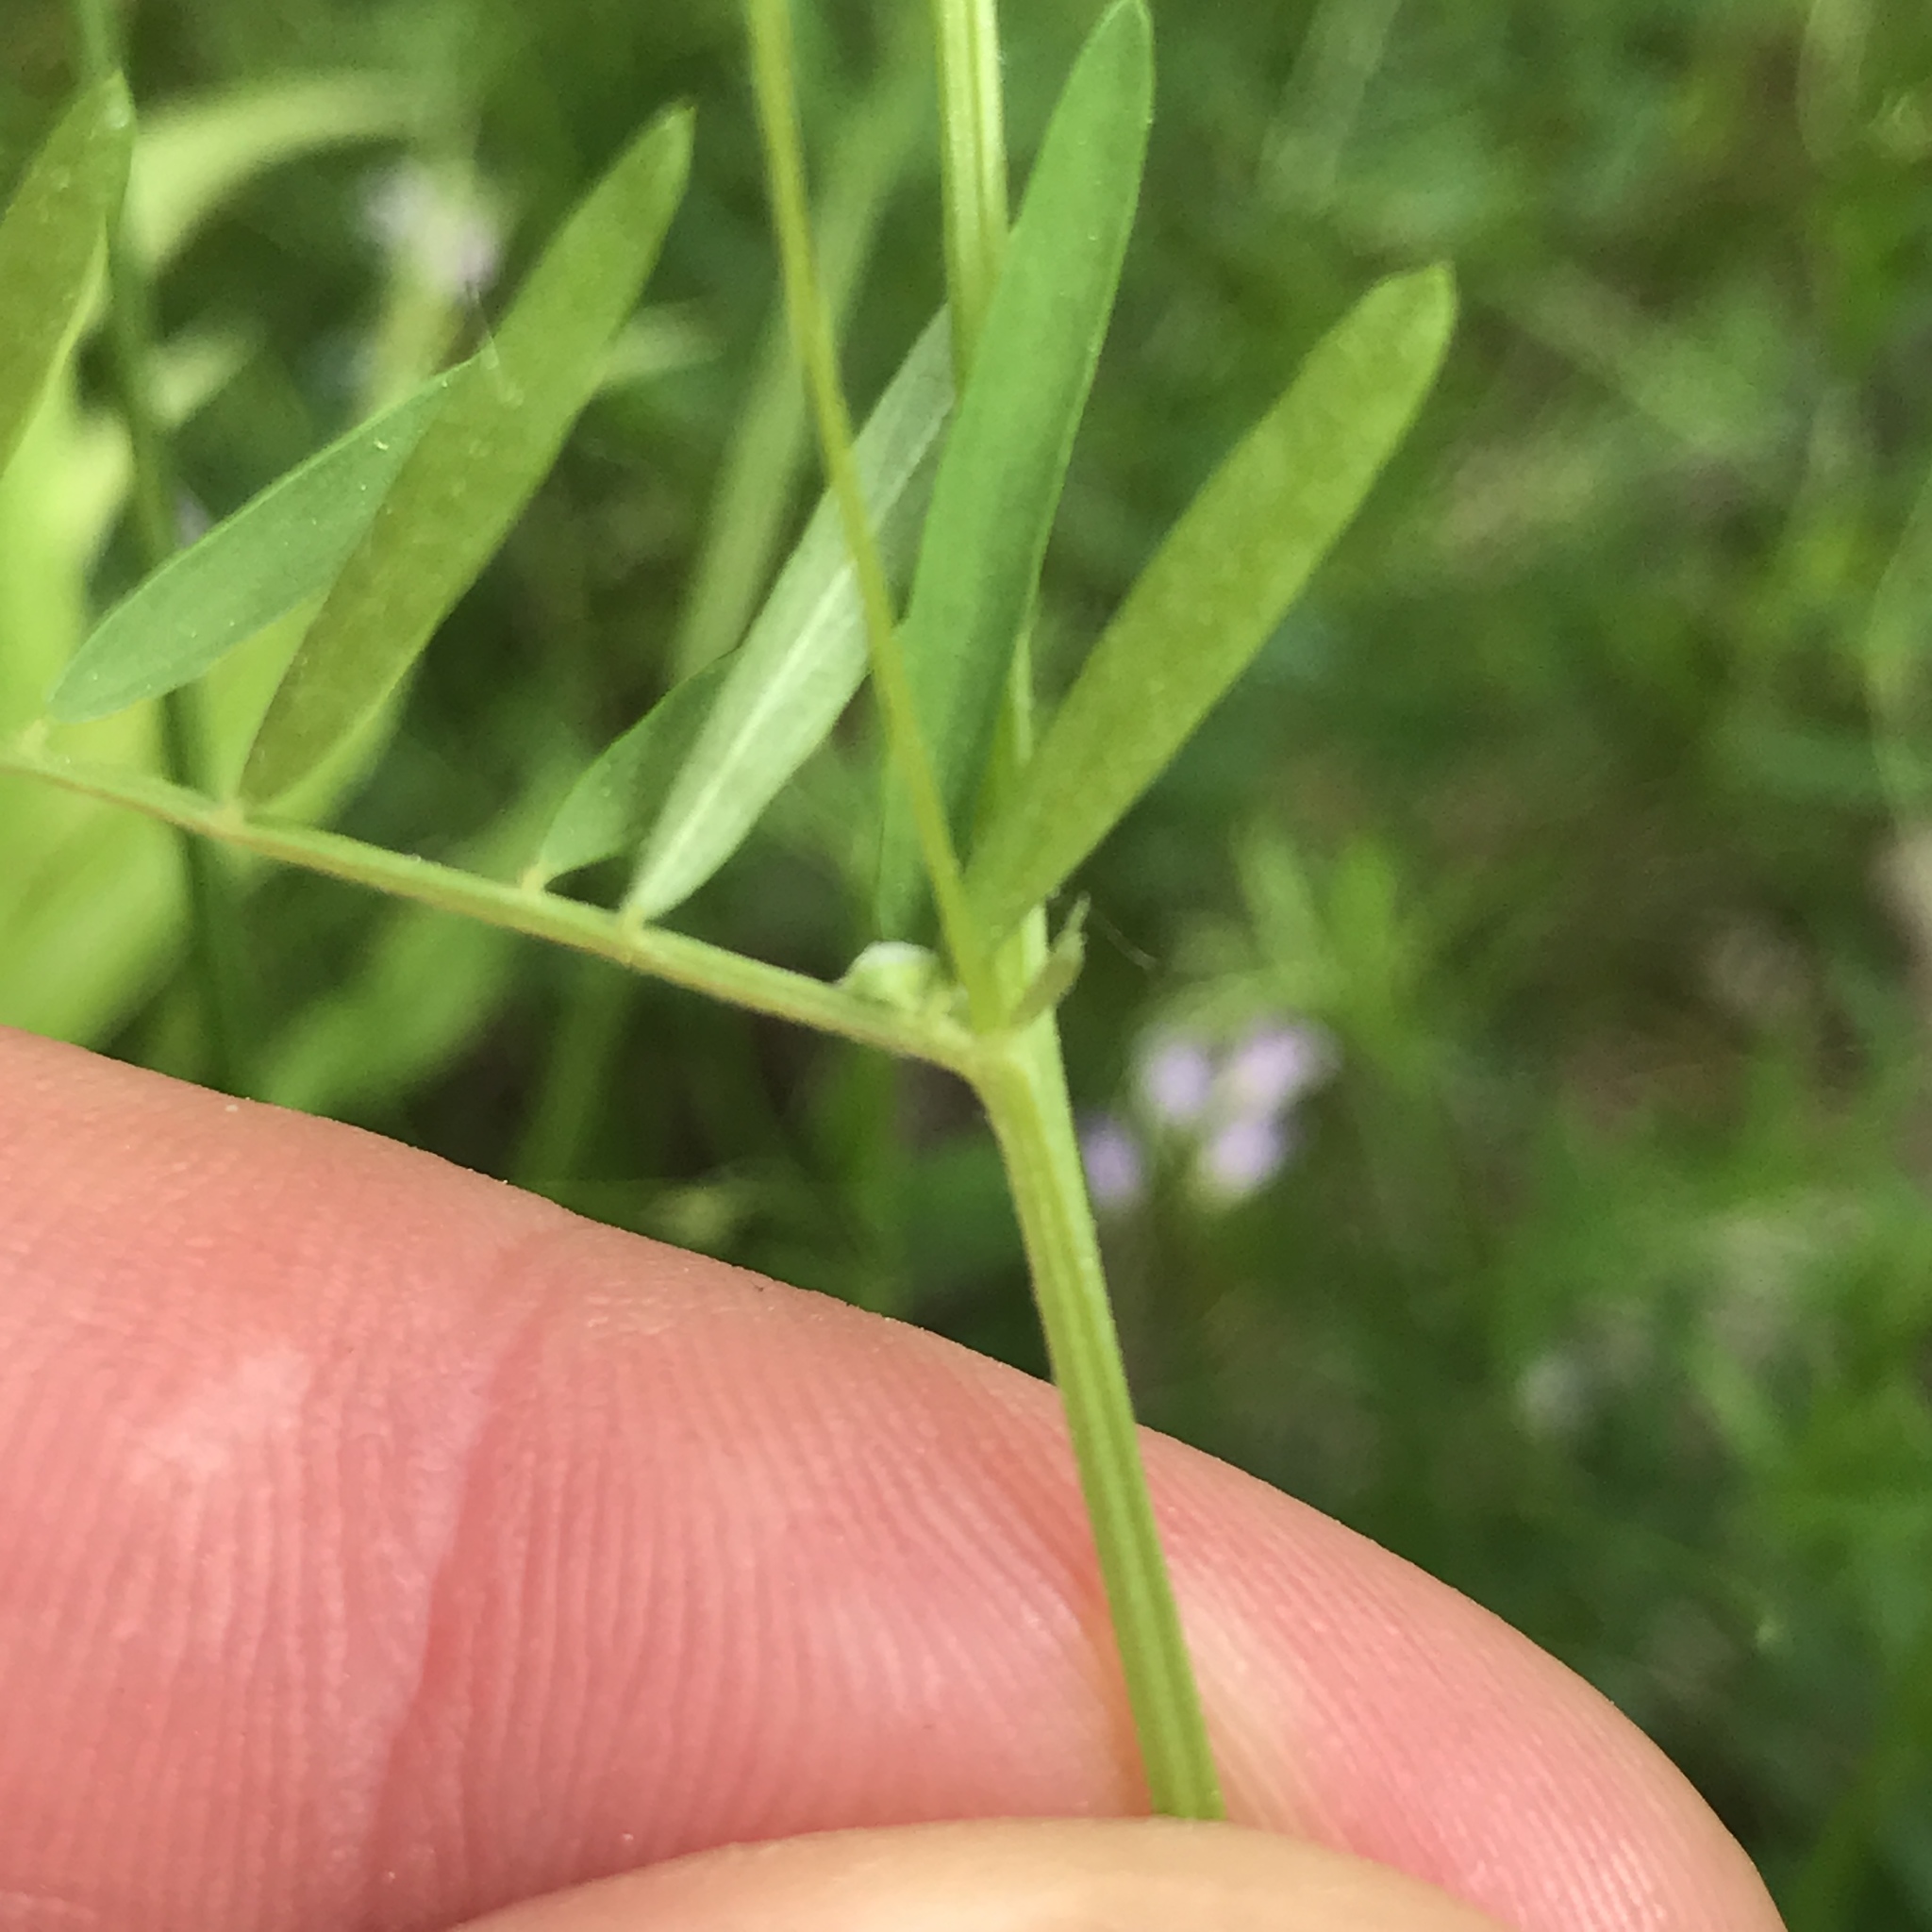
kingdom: Plantae
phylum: Tracheophyta
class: Magnoliopsida
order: Fabales
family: Fabaceae
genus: Vicia
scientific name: Vicia tetrasperma
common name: Smooth tare
